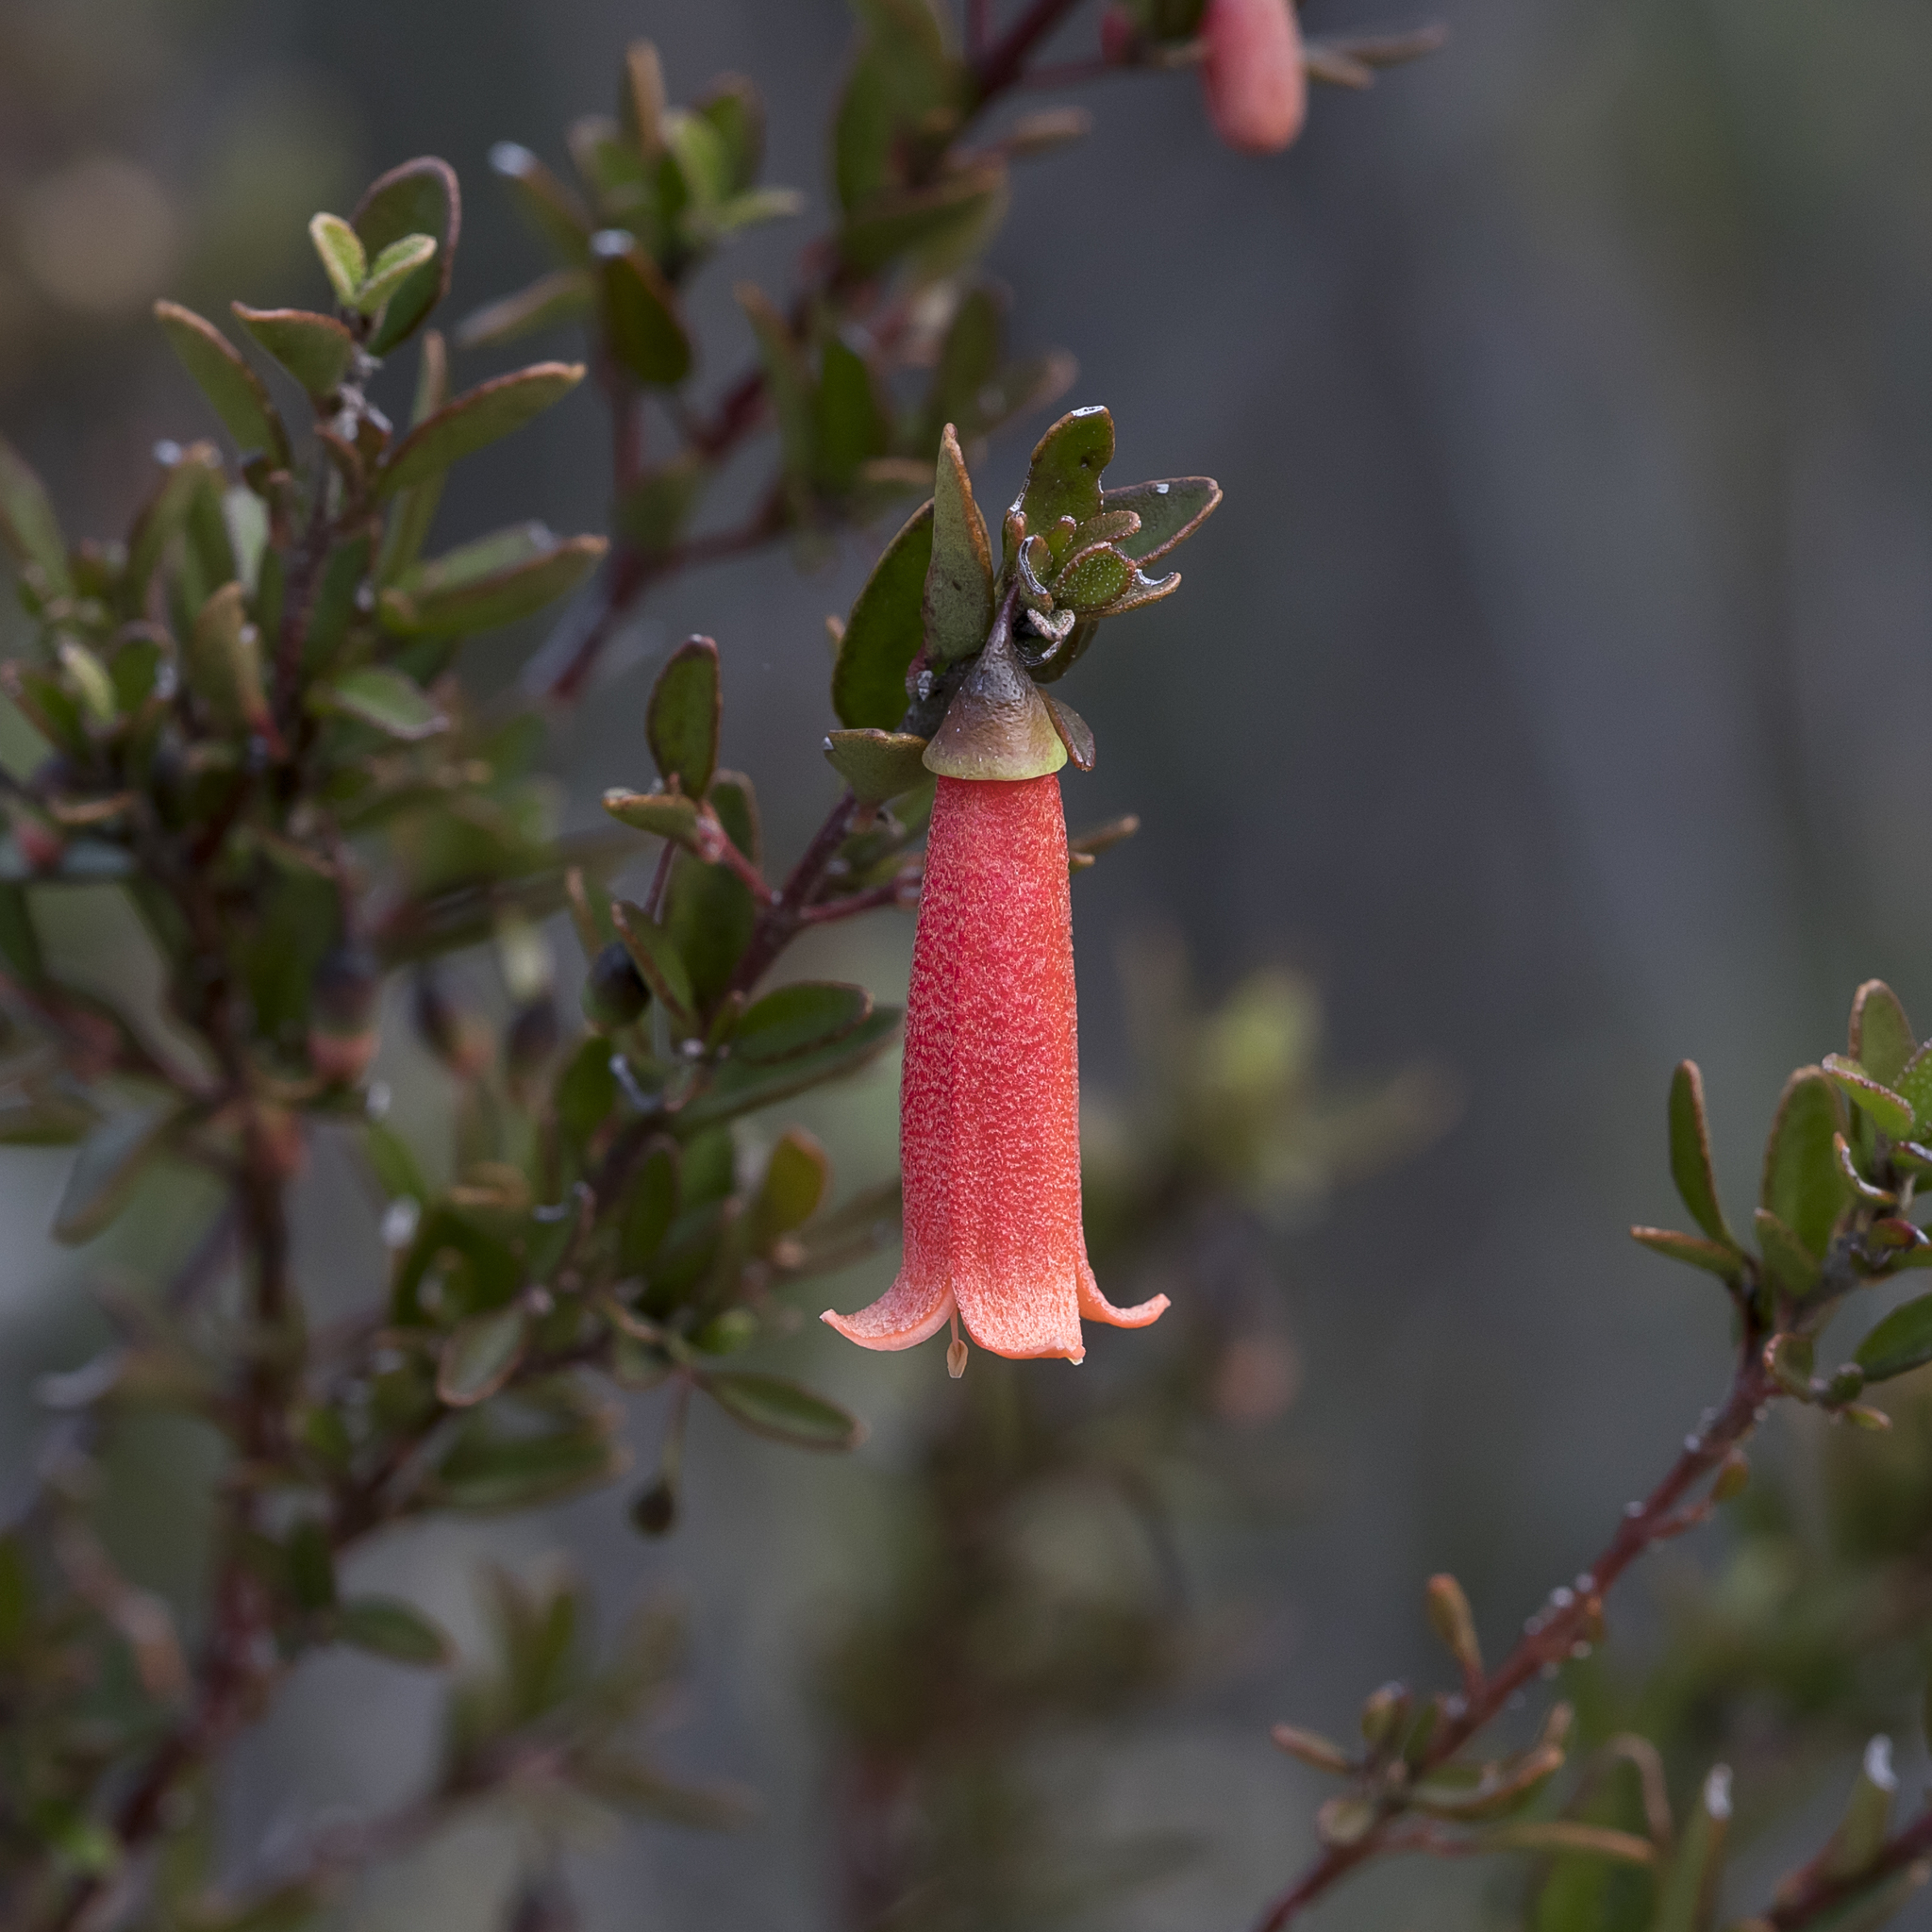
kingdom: Plantae
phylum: Tracheophyta
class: Magnoliopsida
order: Sapindales
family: Rutaceae
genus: Correa
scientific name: Correa pulchella
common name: Salmon correa
